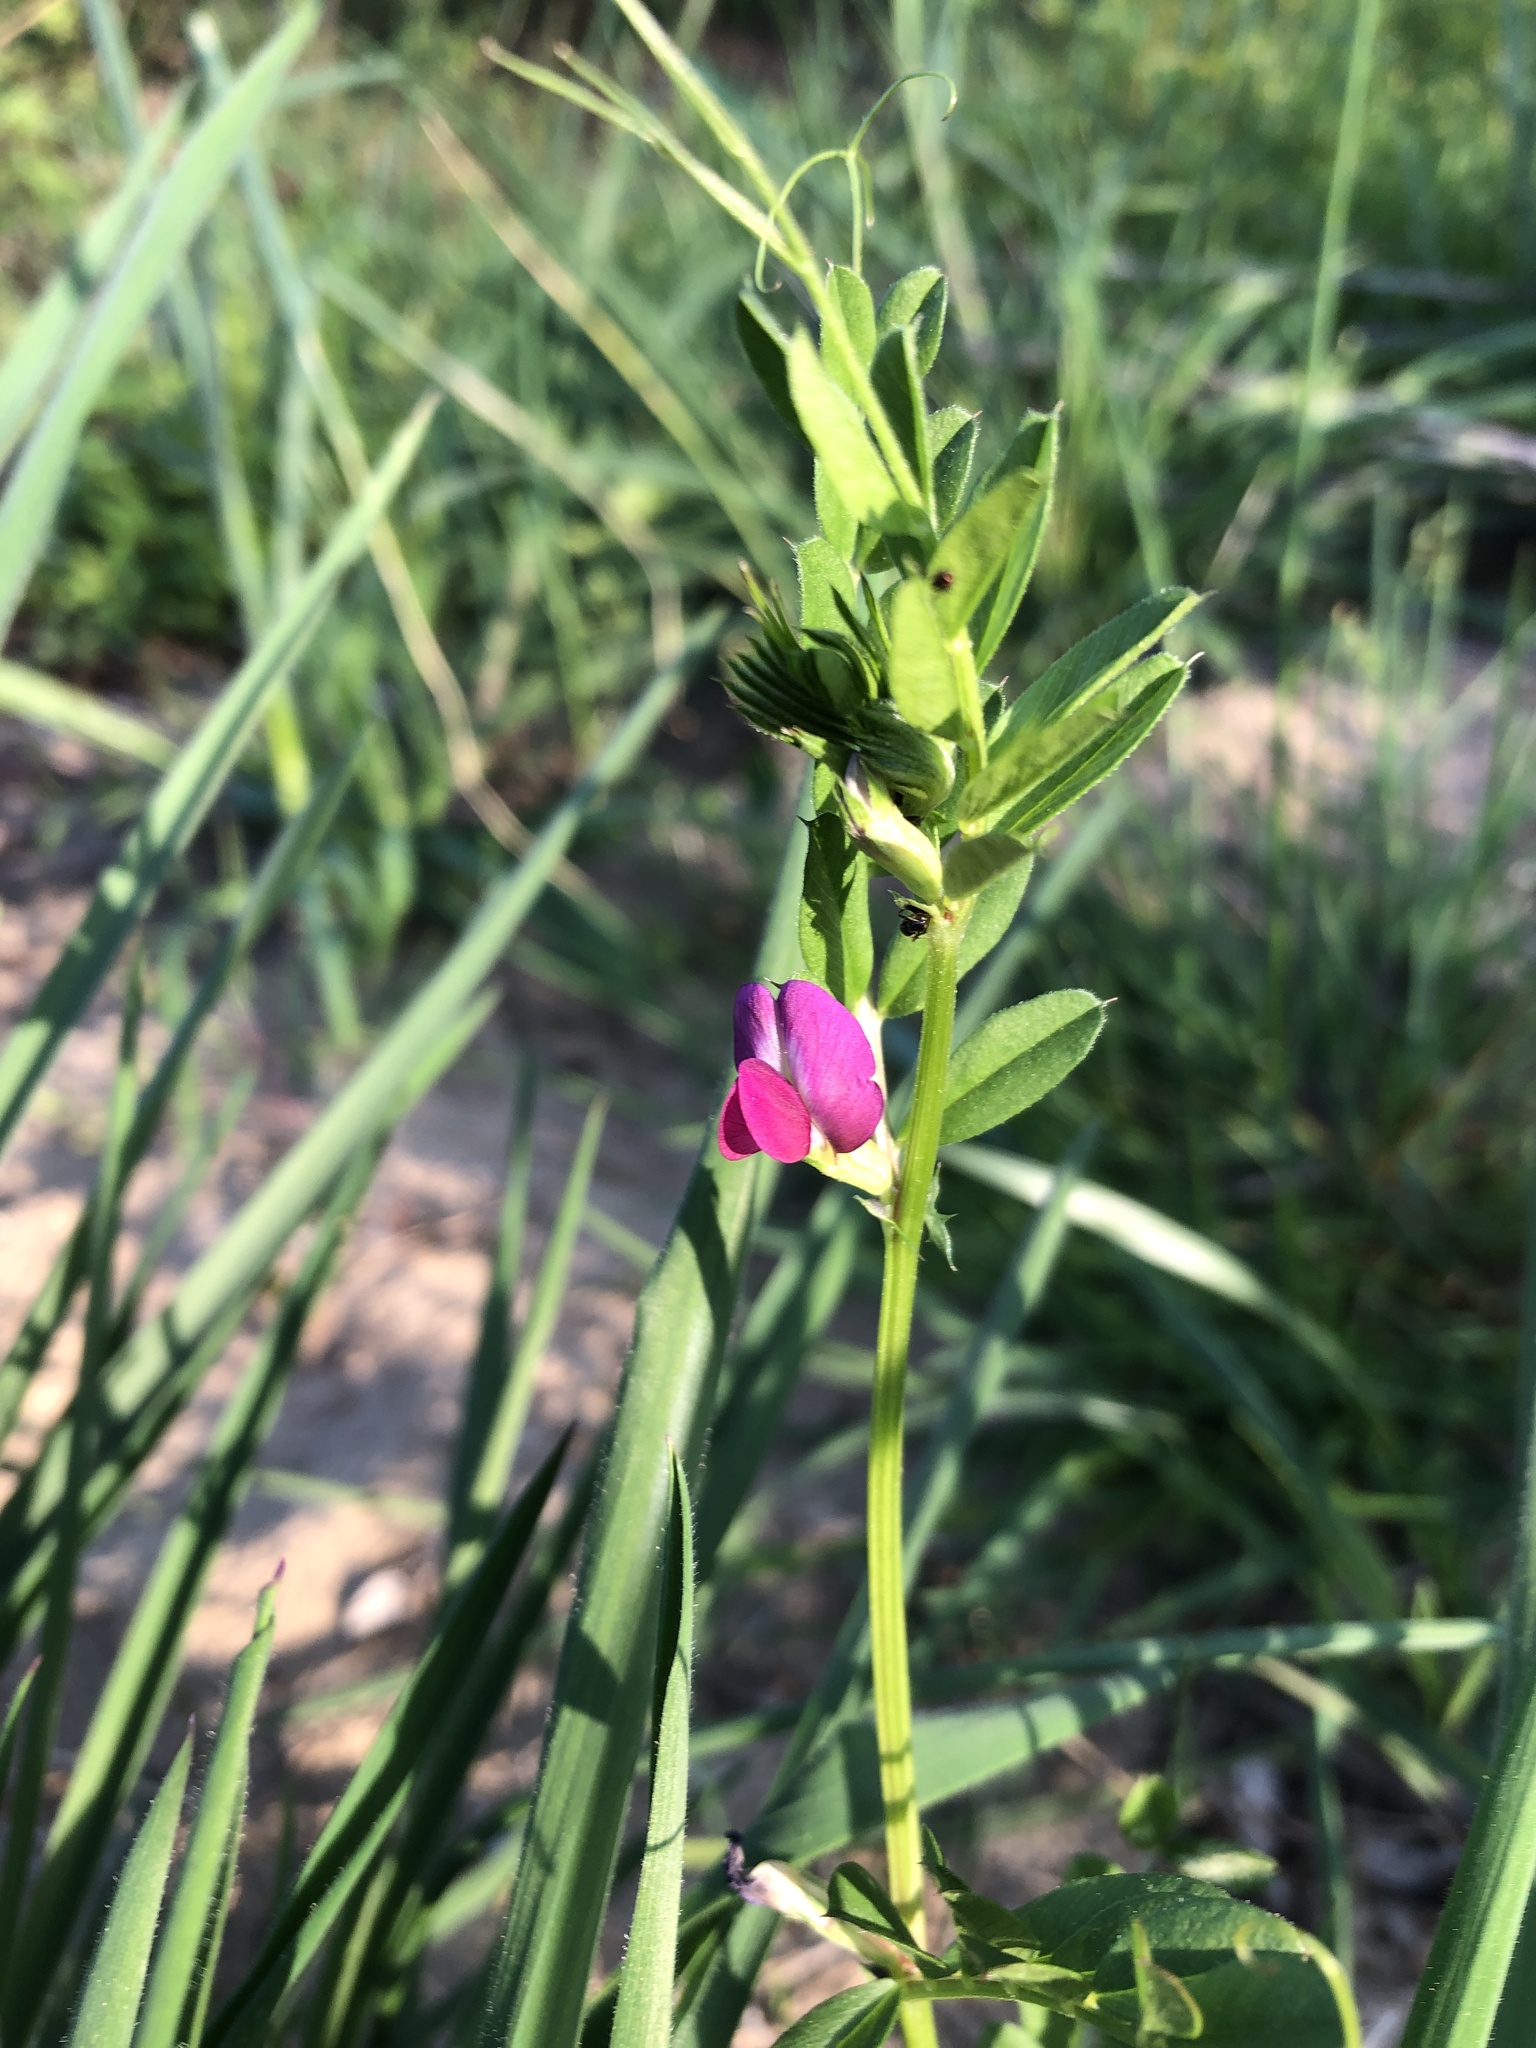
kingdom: Plantae
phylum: Tracheophyta
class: Magnoliopsida
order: Fabales
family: Fabaceae
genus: Vicia
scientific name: Vicia sativa
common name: Garden vetch
